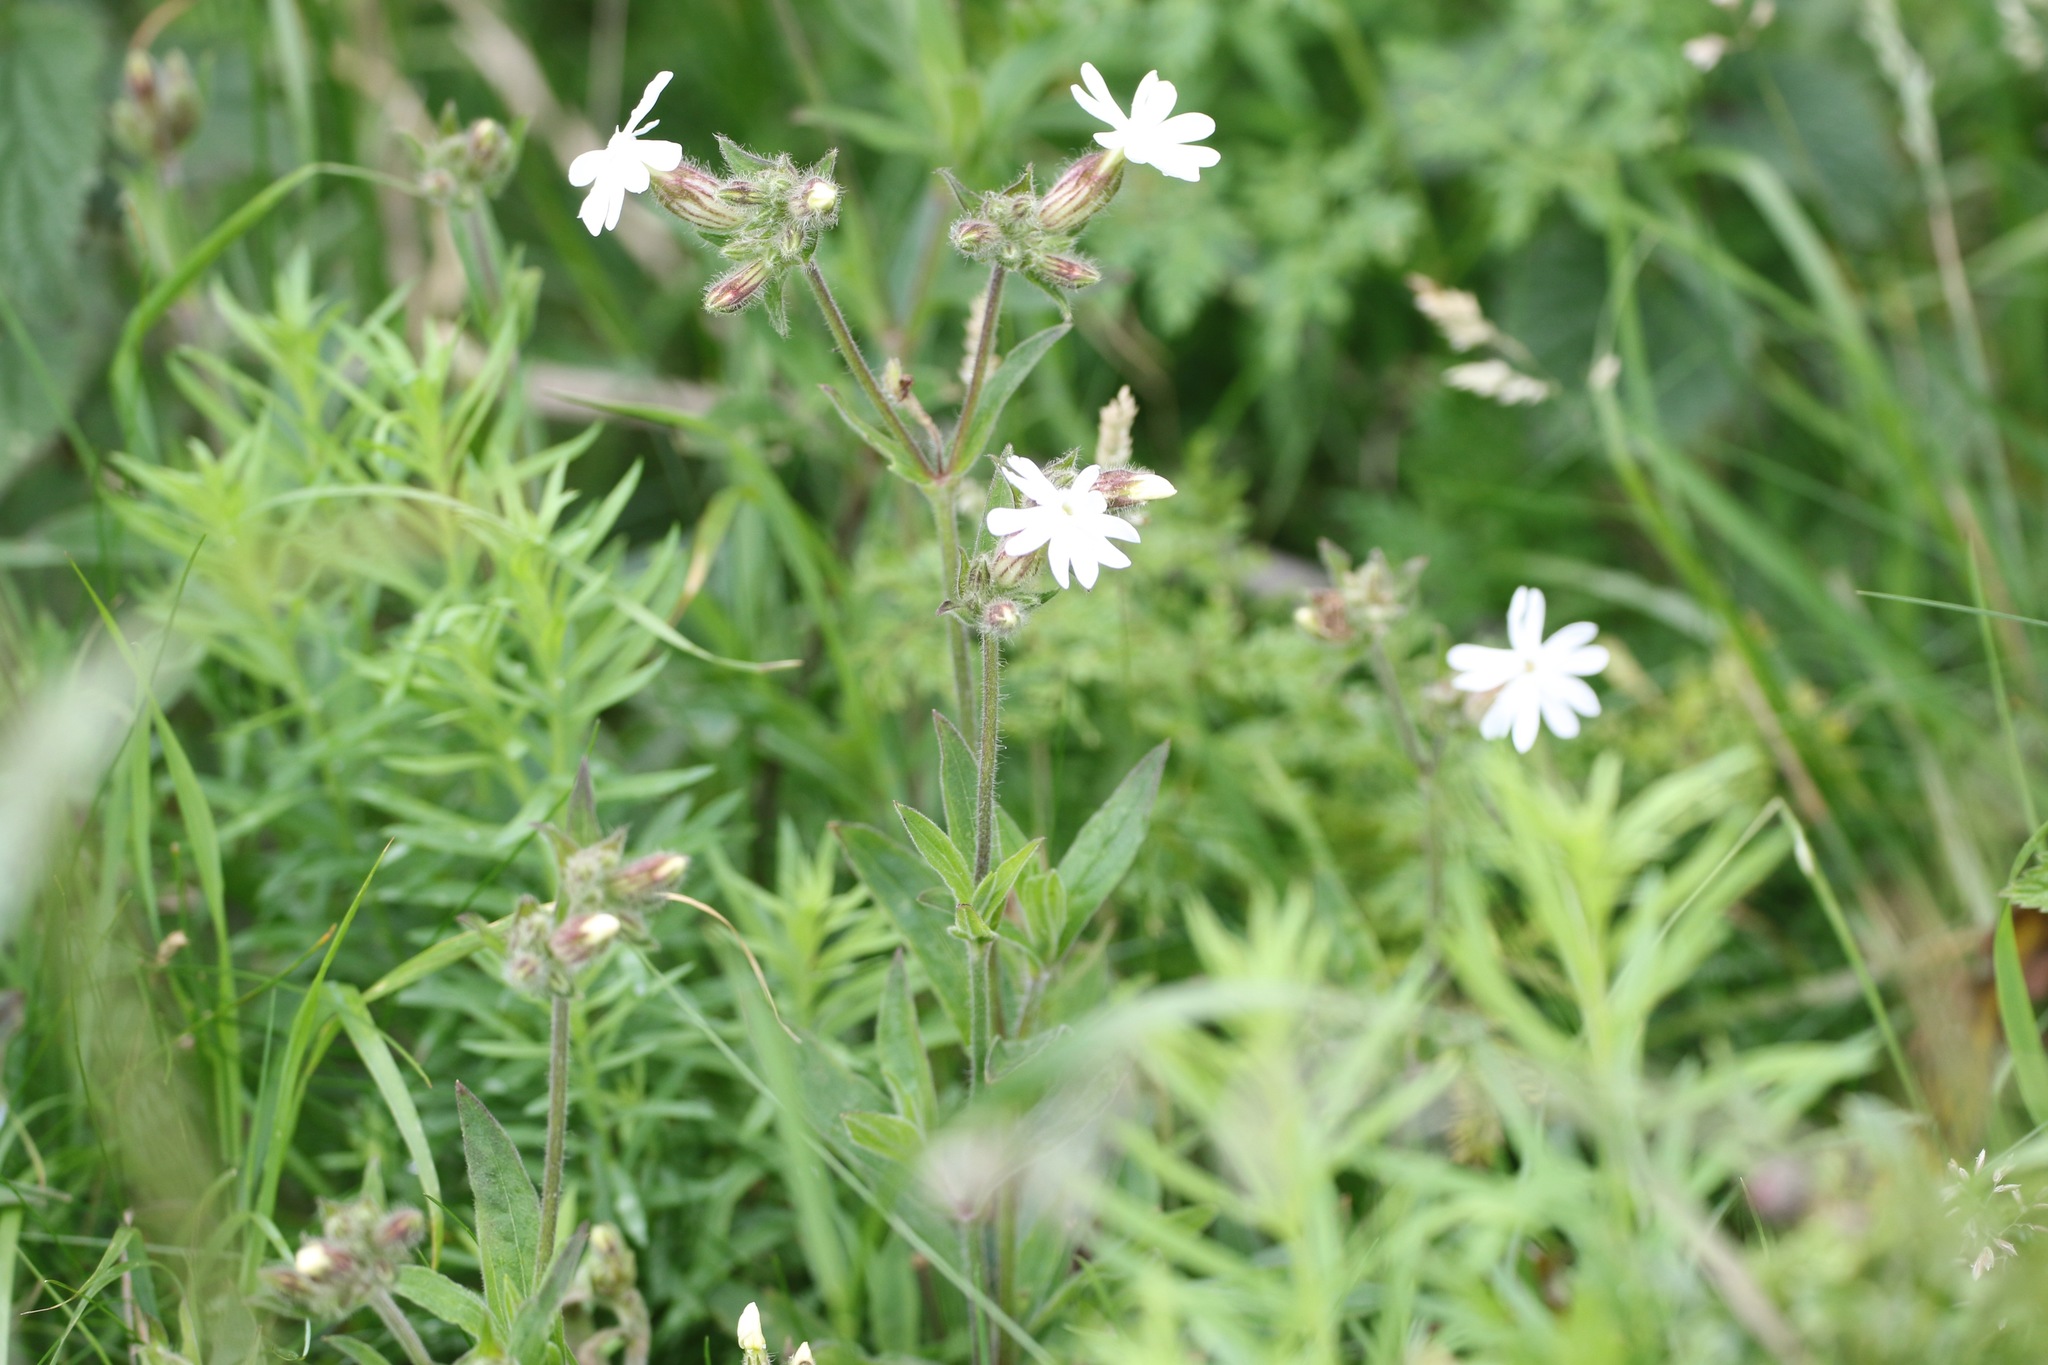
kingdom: Plantae
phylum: Tracheophyta
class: Magnoliopsida
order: Caryophyllales
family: Caryophyllaceae
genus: Silene
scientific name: Silene latifolia
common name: White campion
